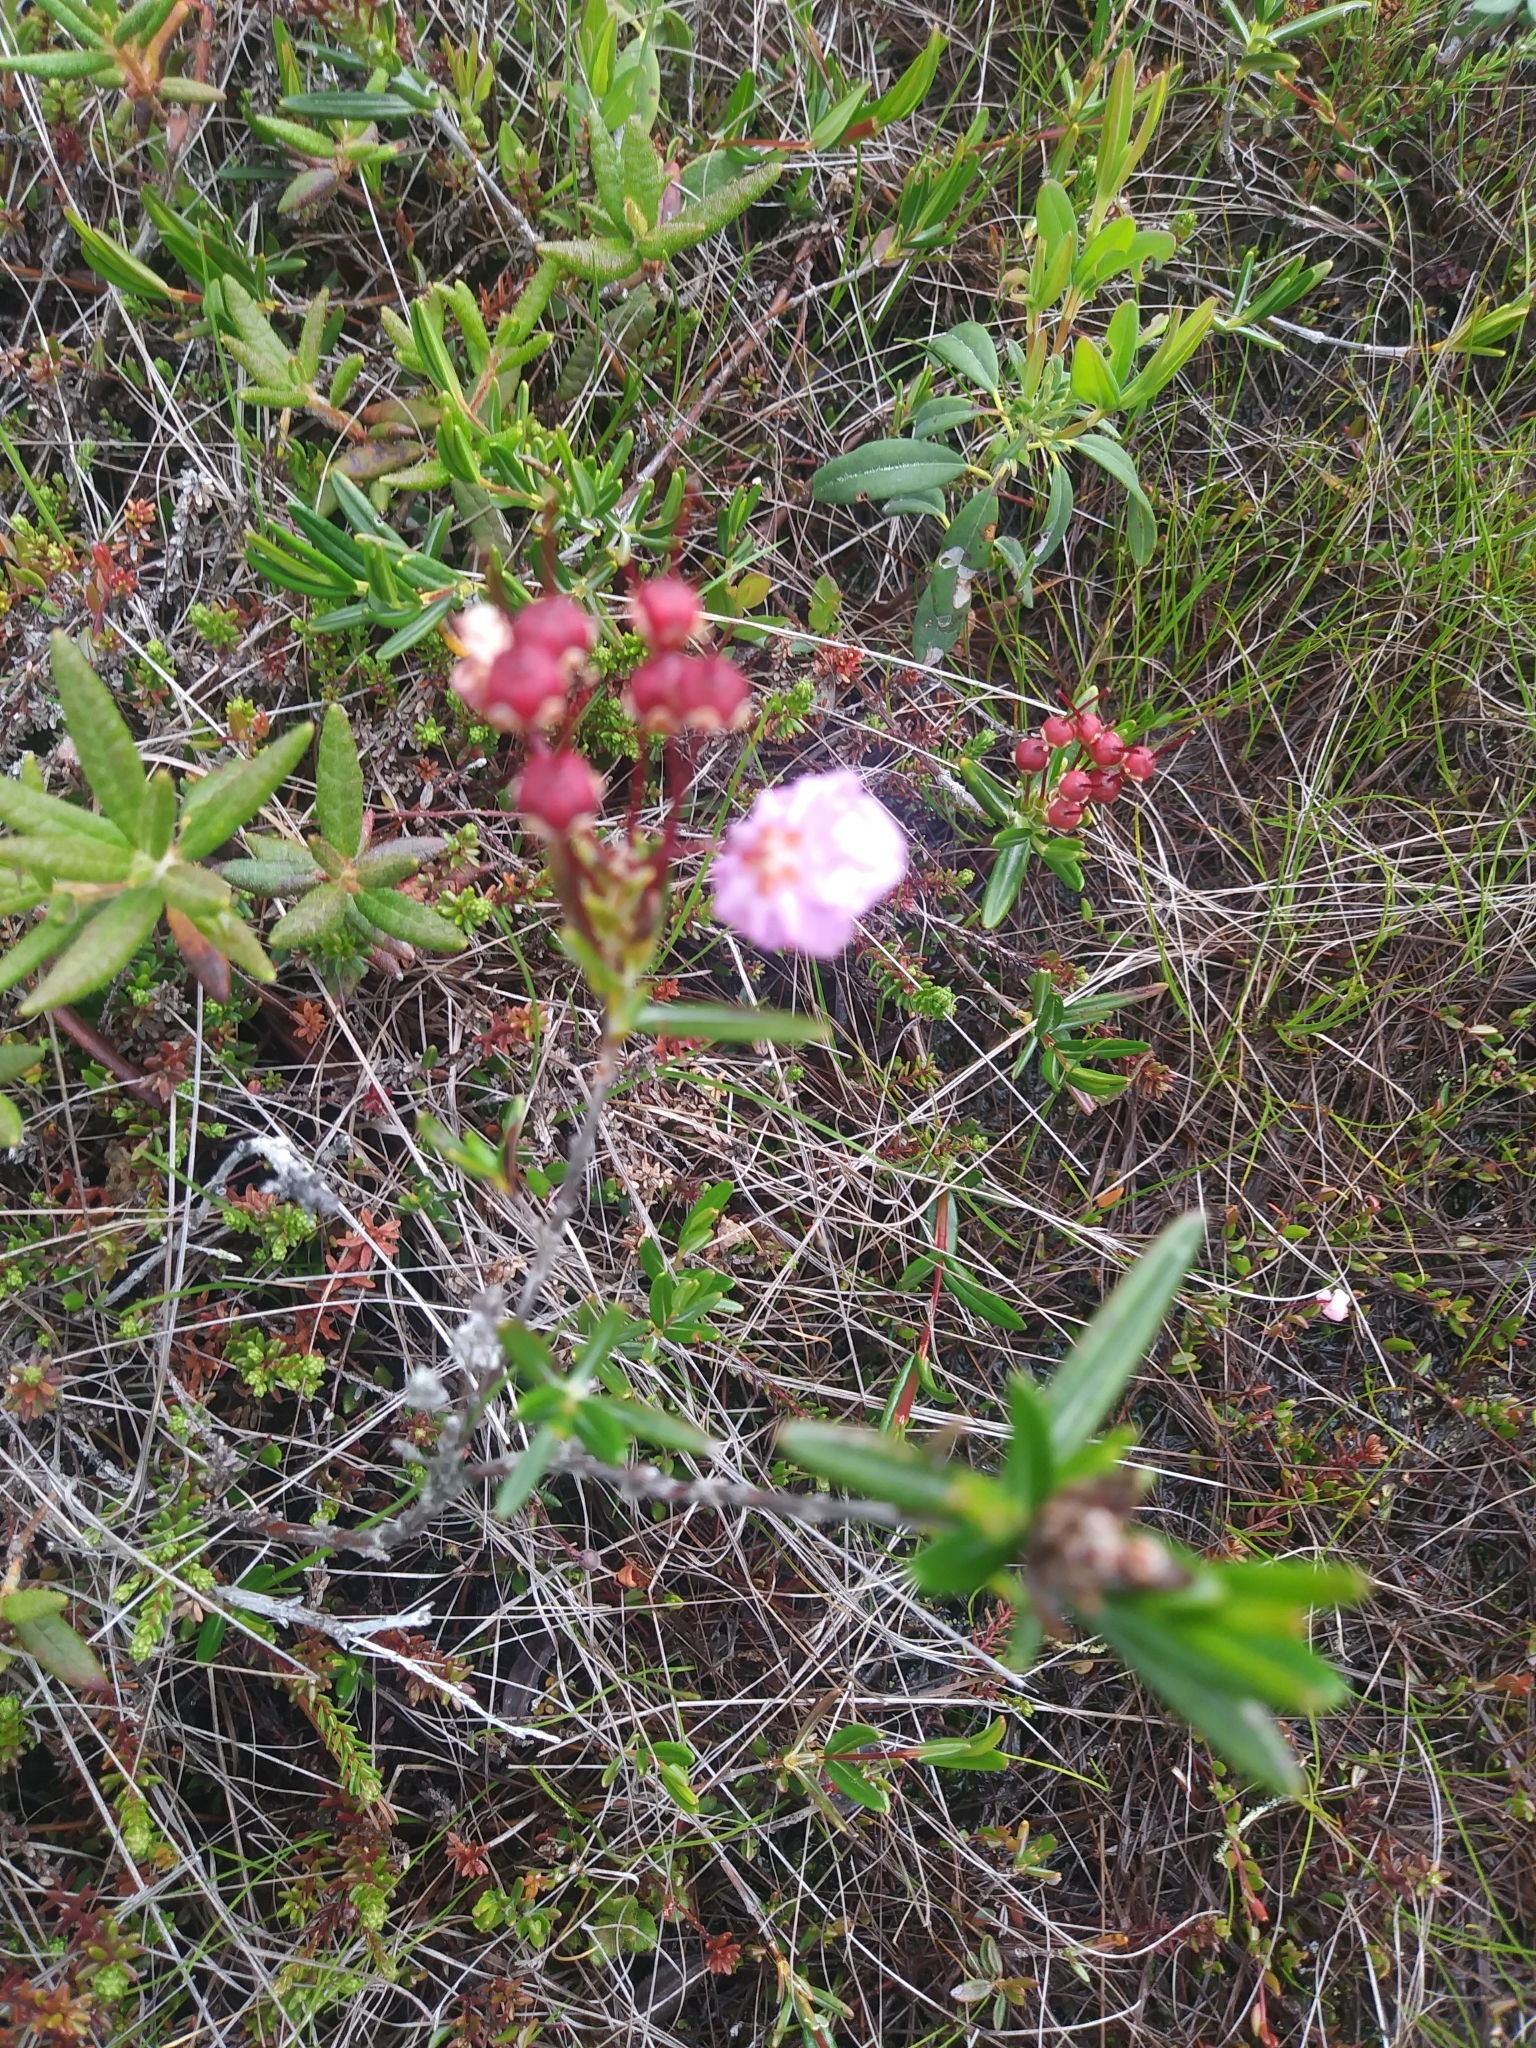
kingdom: Plantae
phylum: Tracheophyta
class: Magnoliopsida
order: Ericales
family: Ericaceae
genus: Kalmia
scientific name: Kalmia polifolia
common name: Bog-laurel
